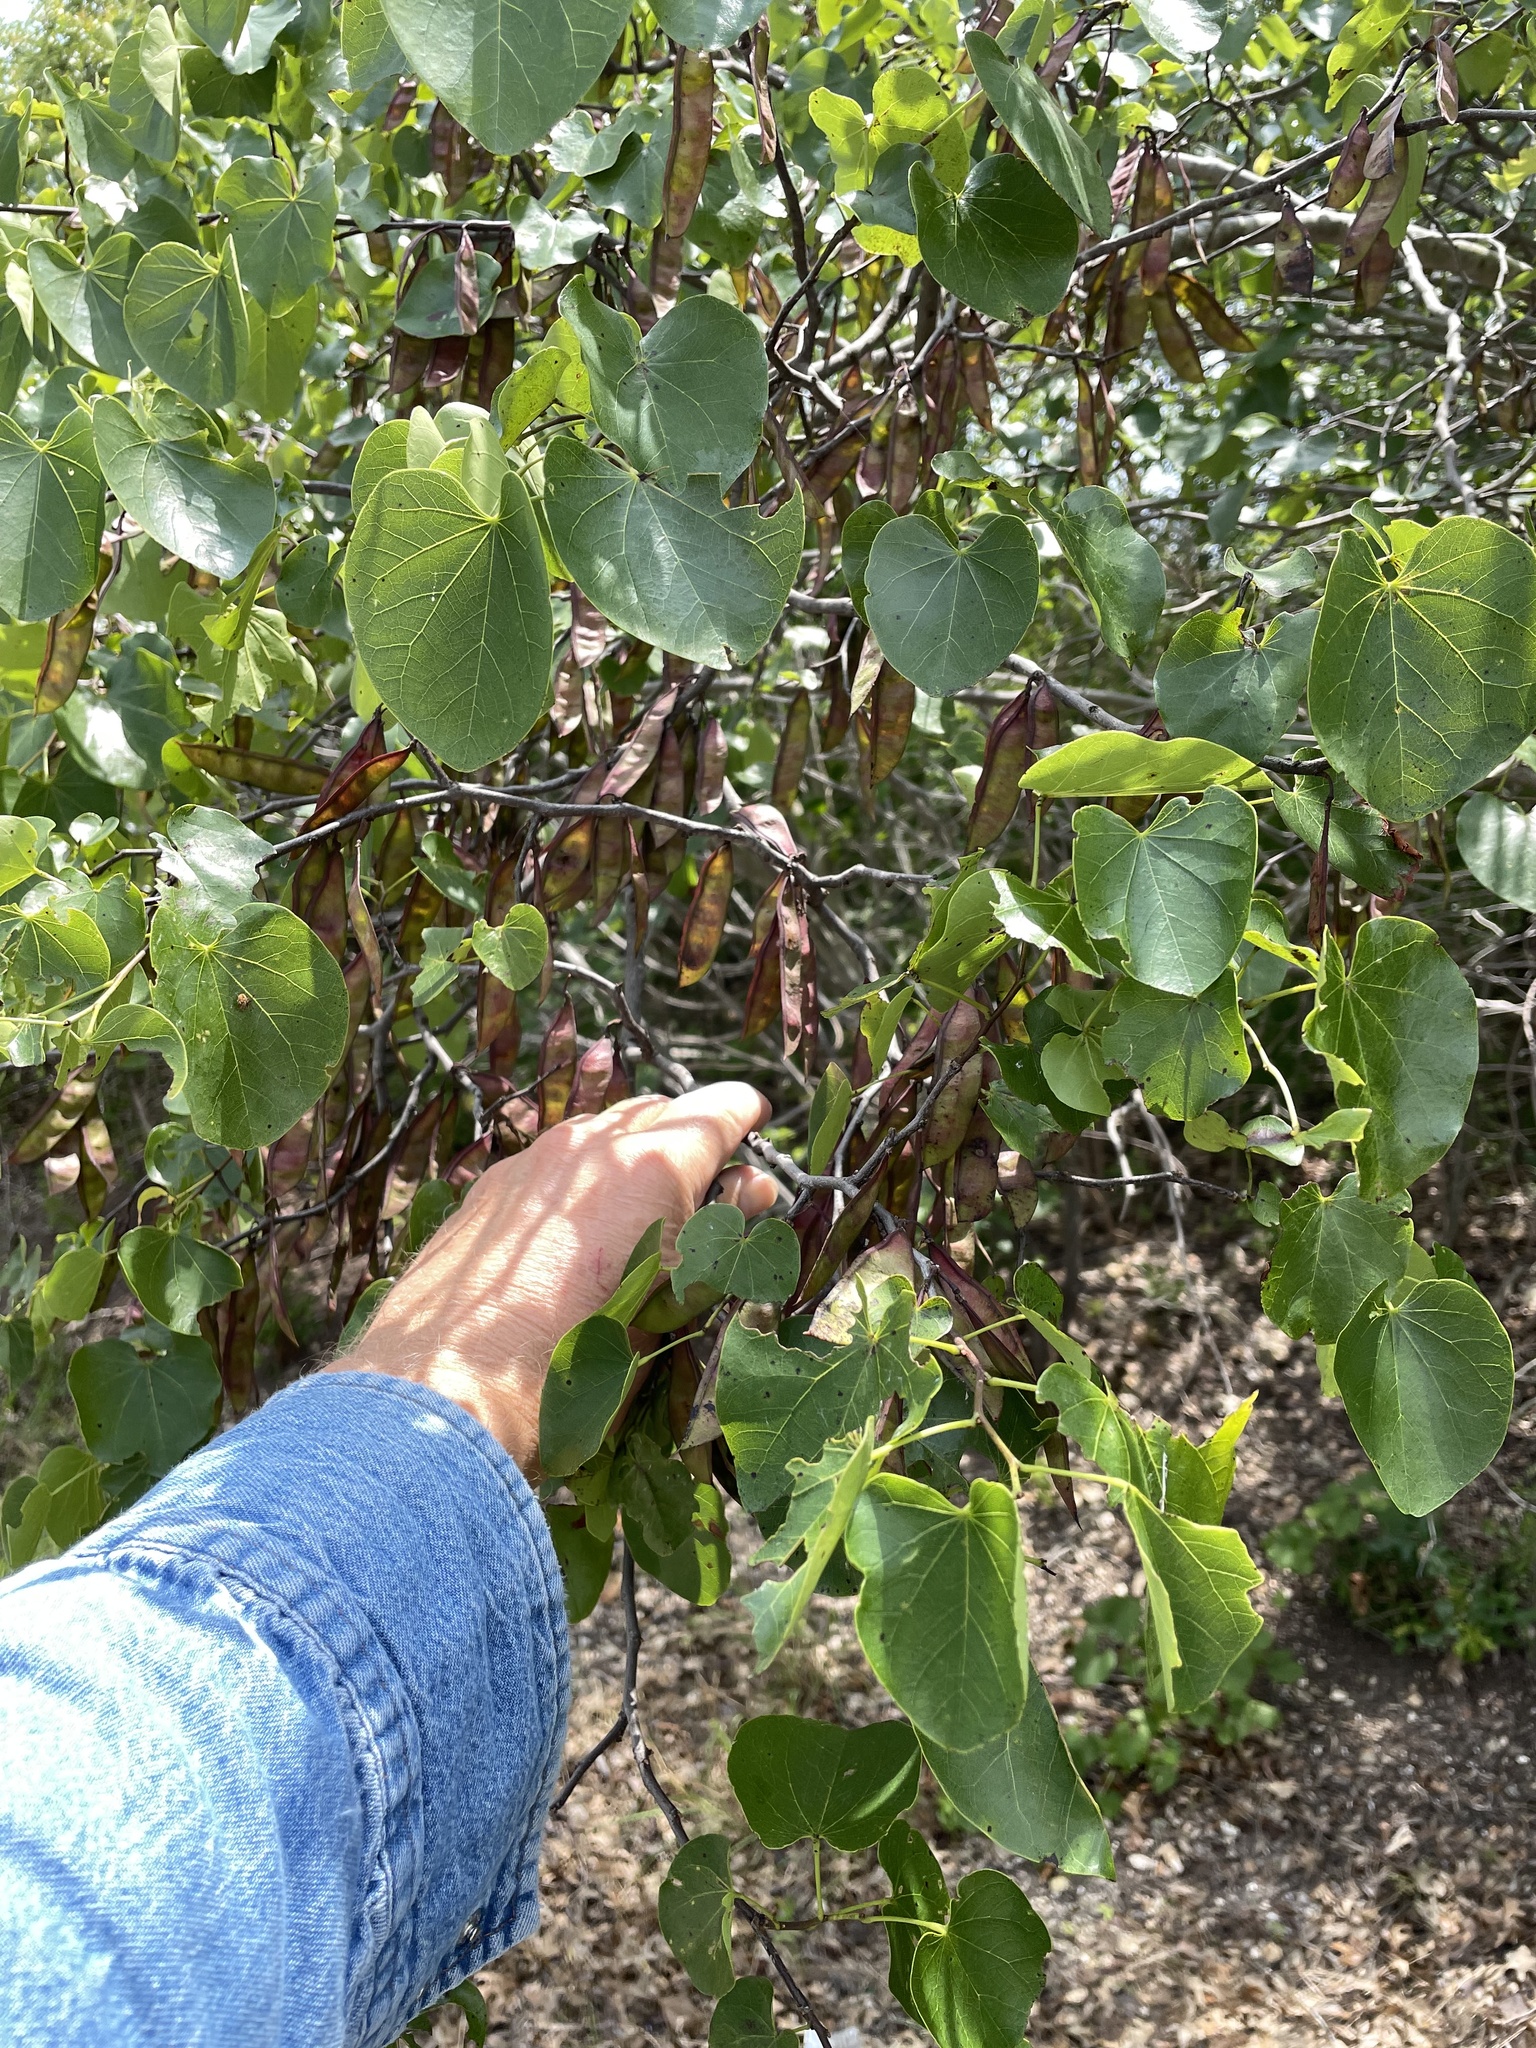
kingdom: Plantae
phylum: Tracheophyta
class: Magnoliopsida
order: Fabales
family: Fabaceae
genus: Cercis
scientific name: Cercis canadensis
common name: Eastern redbud
